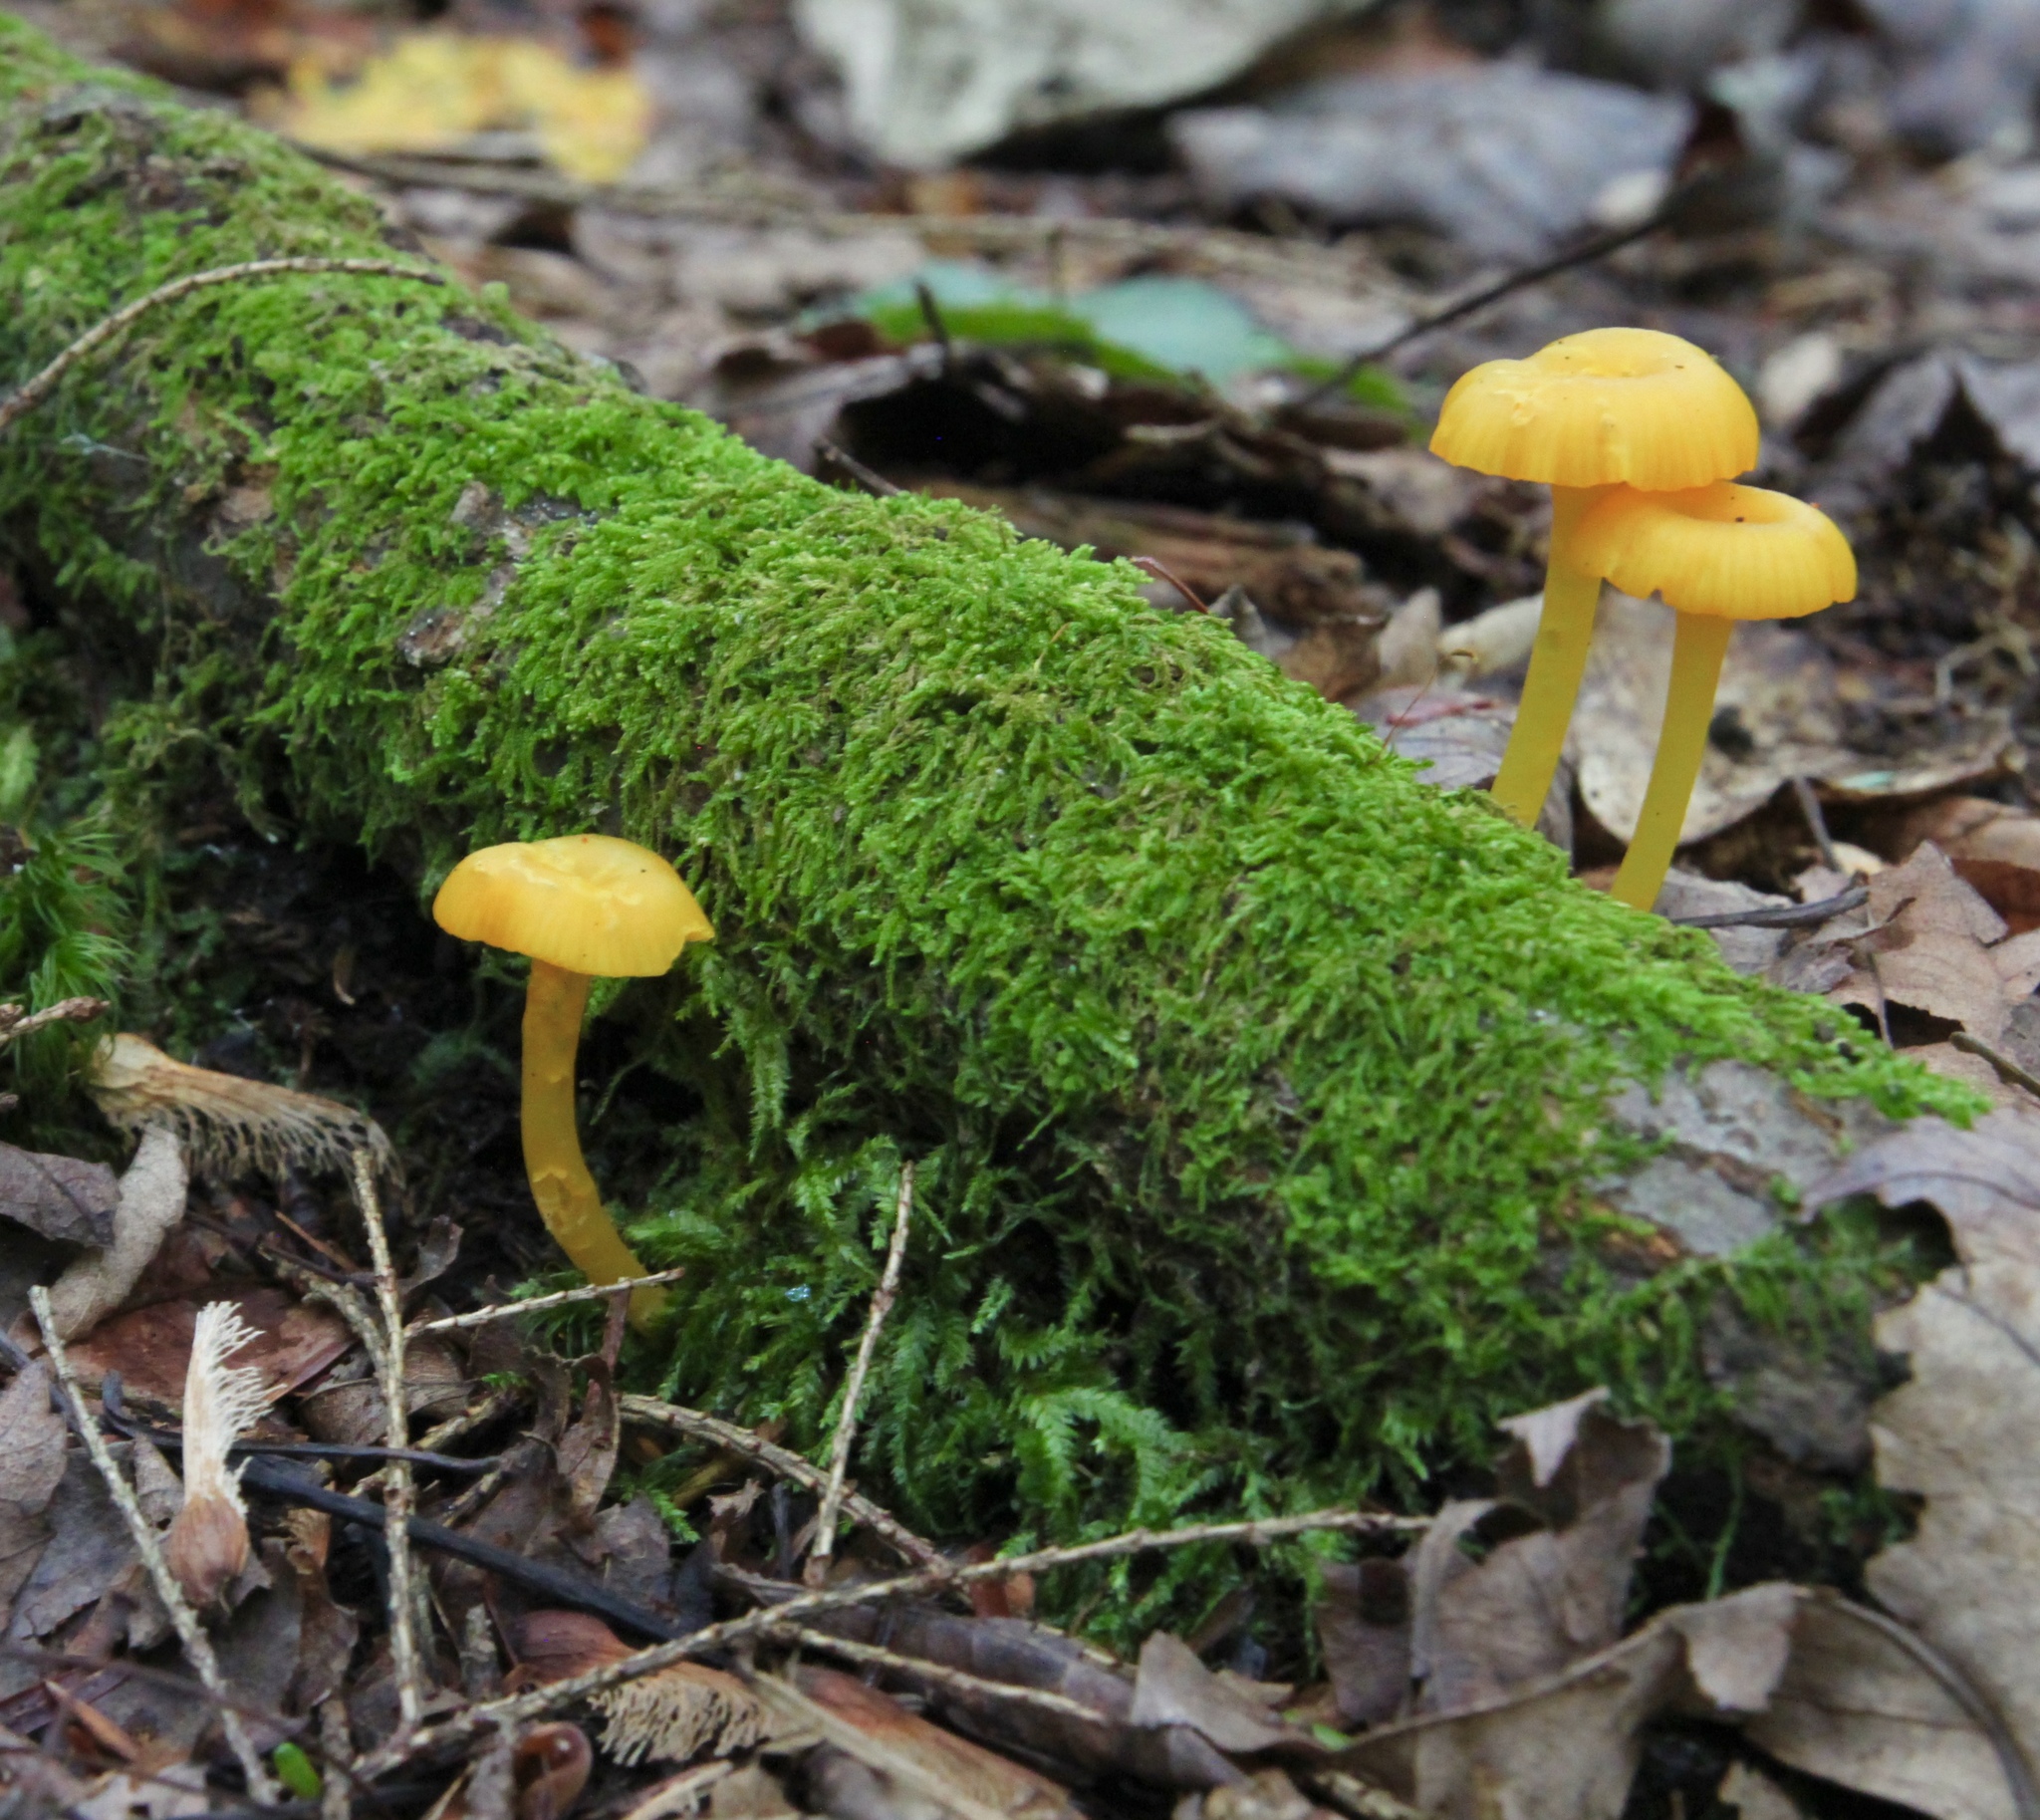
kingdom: Fungi
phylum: Basidiomycota
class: Agaricomycetes
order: Agaricales
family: Hygrophoraceae
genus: Gloioxanthomyces
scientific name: Gloioxanthomyces nitidus
